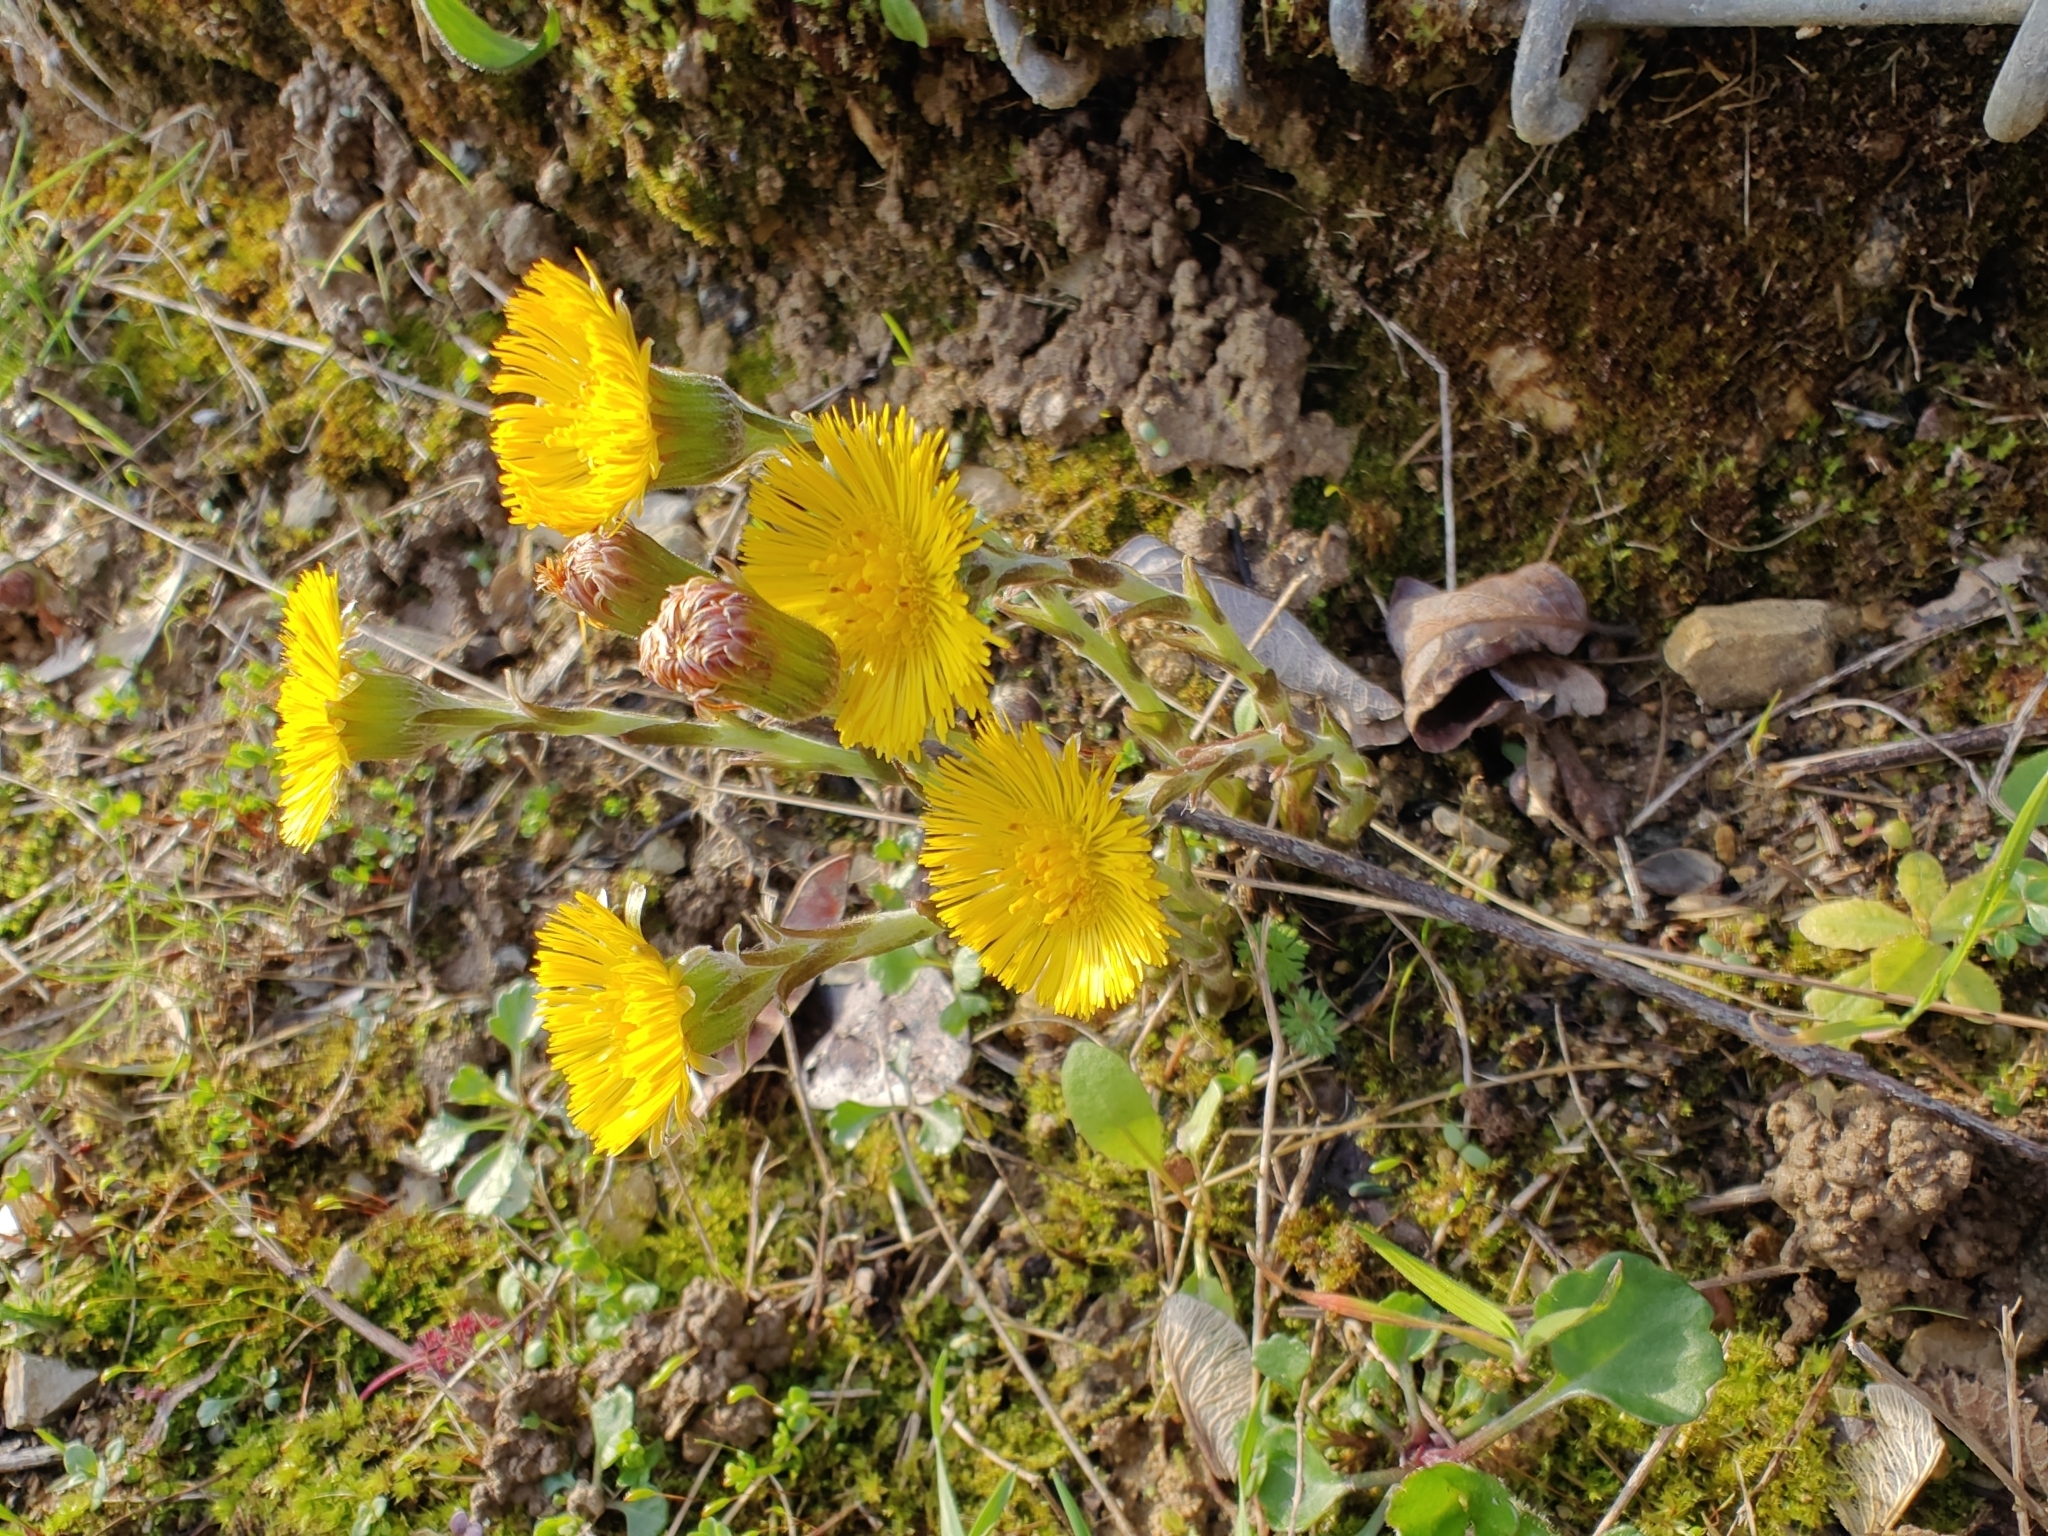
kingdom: Plantae
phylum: Tracheophyta
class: Magnoliopsida
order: Asterales
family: Asteraceae
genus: Tussilago
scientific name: Tussilago farfara
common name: Coltsfoot
